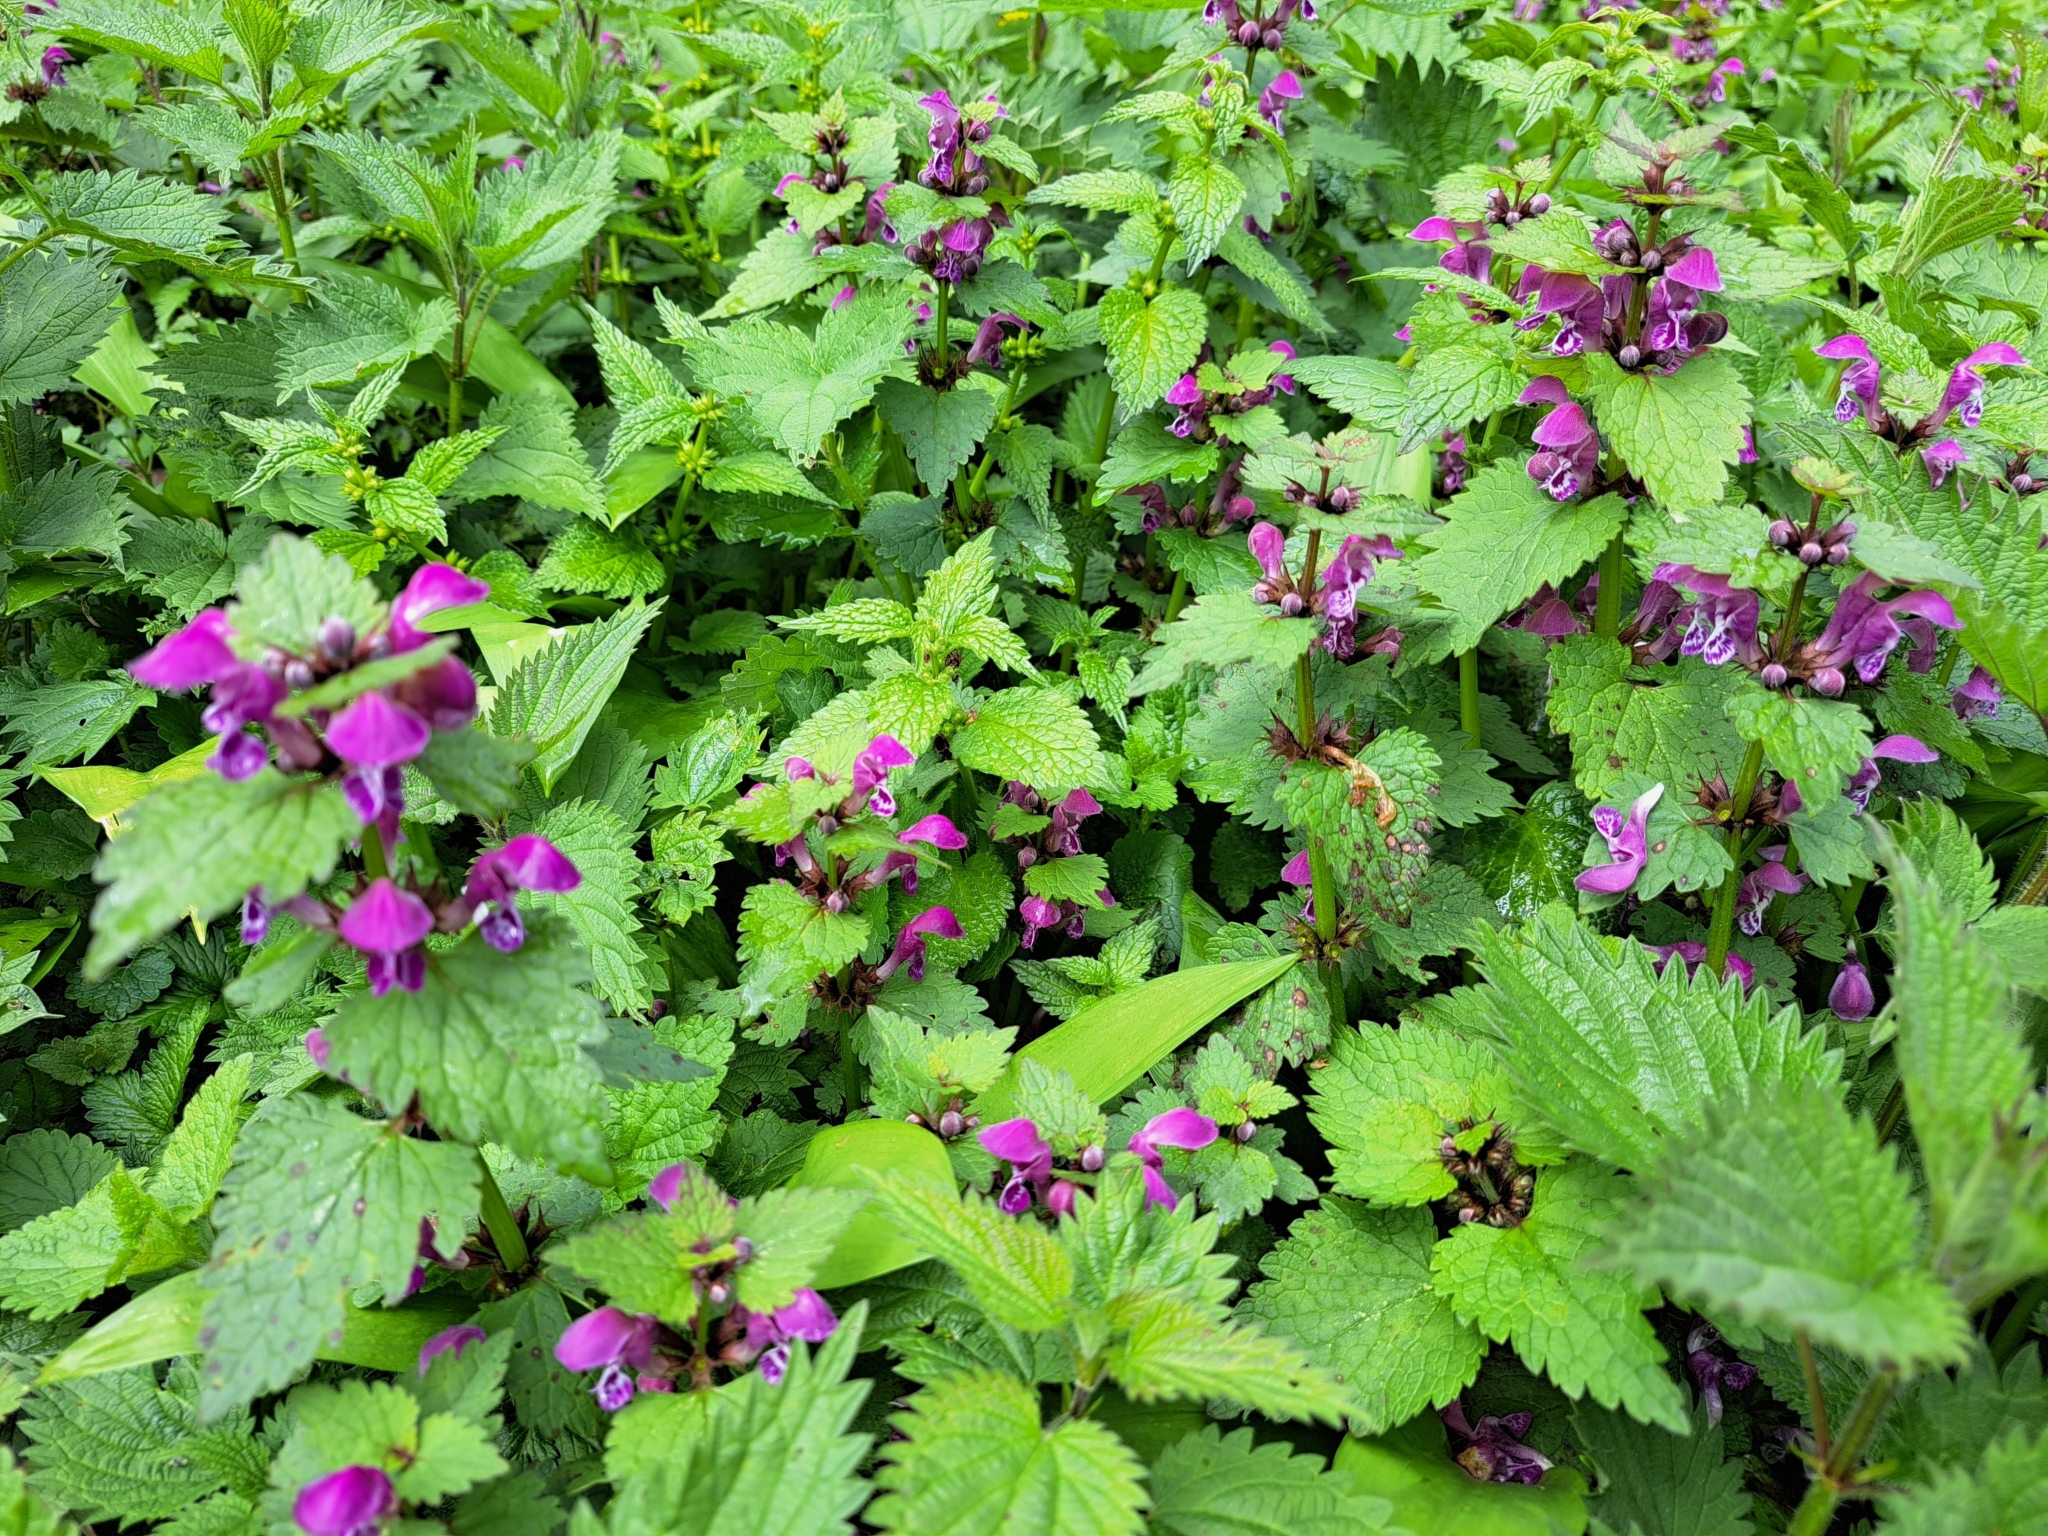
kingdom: Plantae
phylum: Tracheophyta
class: Magnoliopsida
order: Lamiales
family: Lamiaceae
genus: Lamium
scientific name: Lamium maculatum
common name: Spotted dead-nettle
